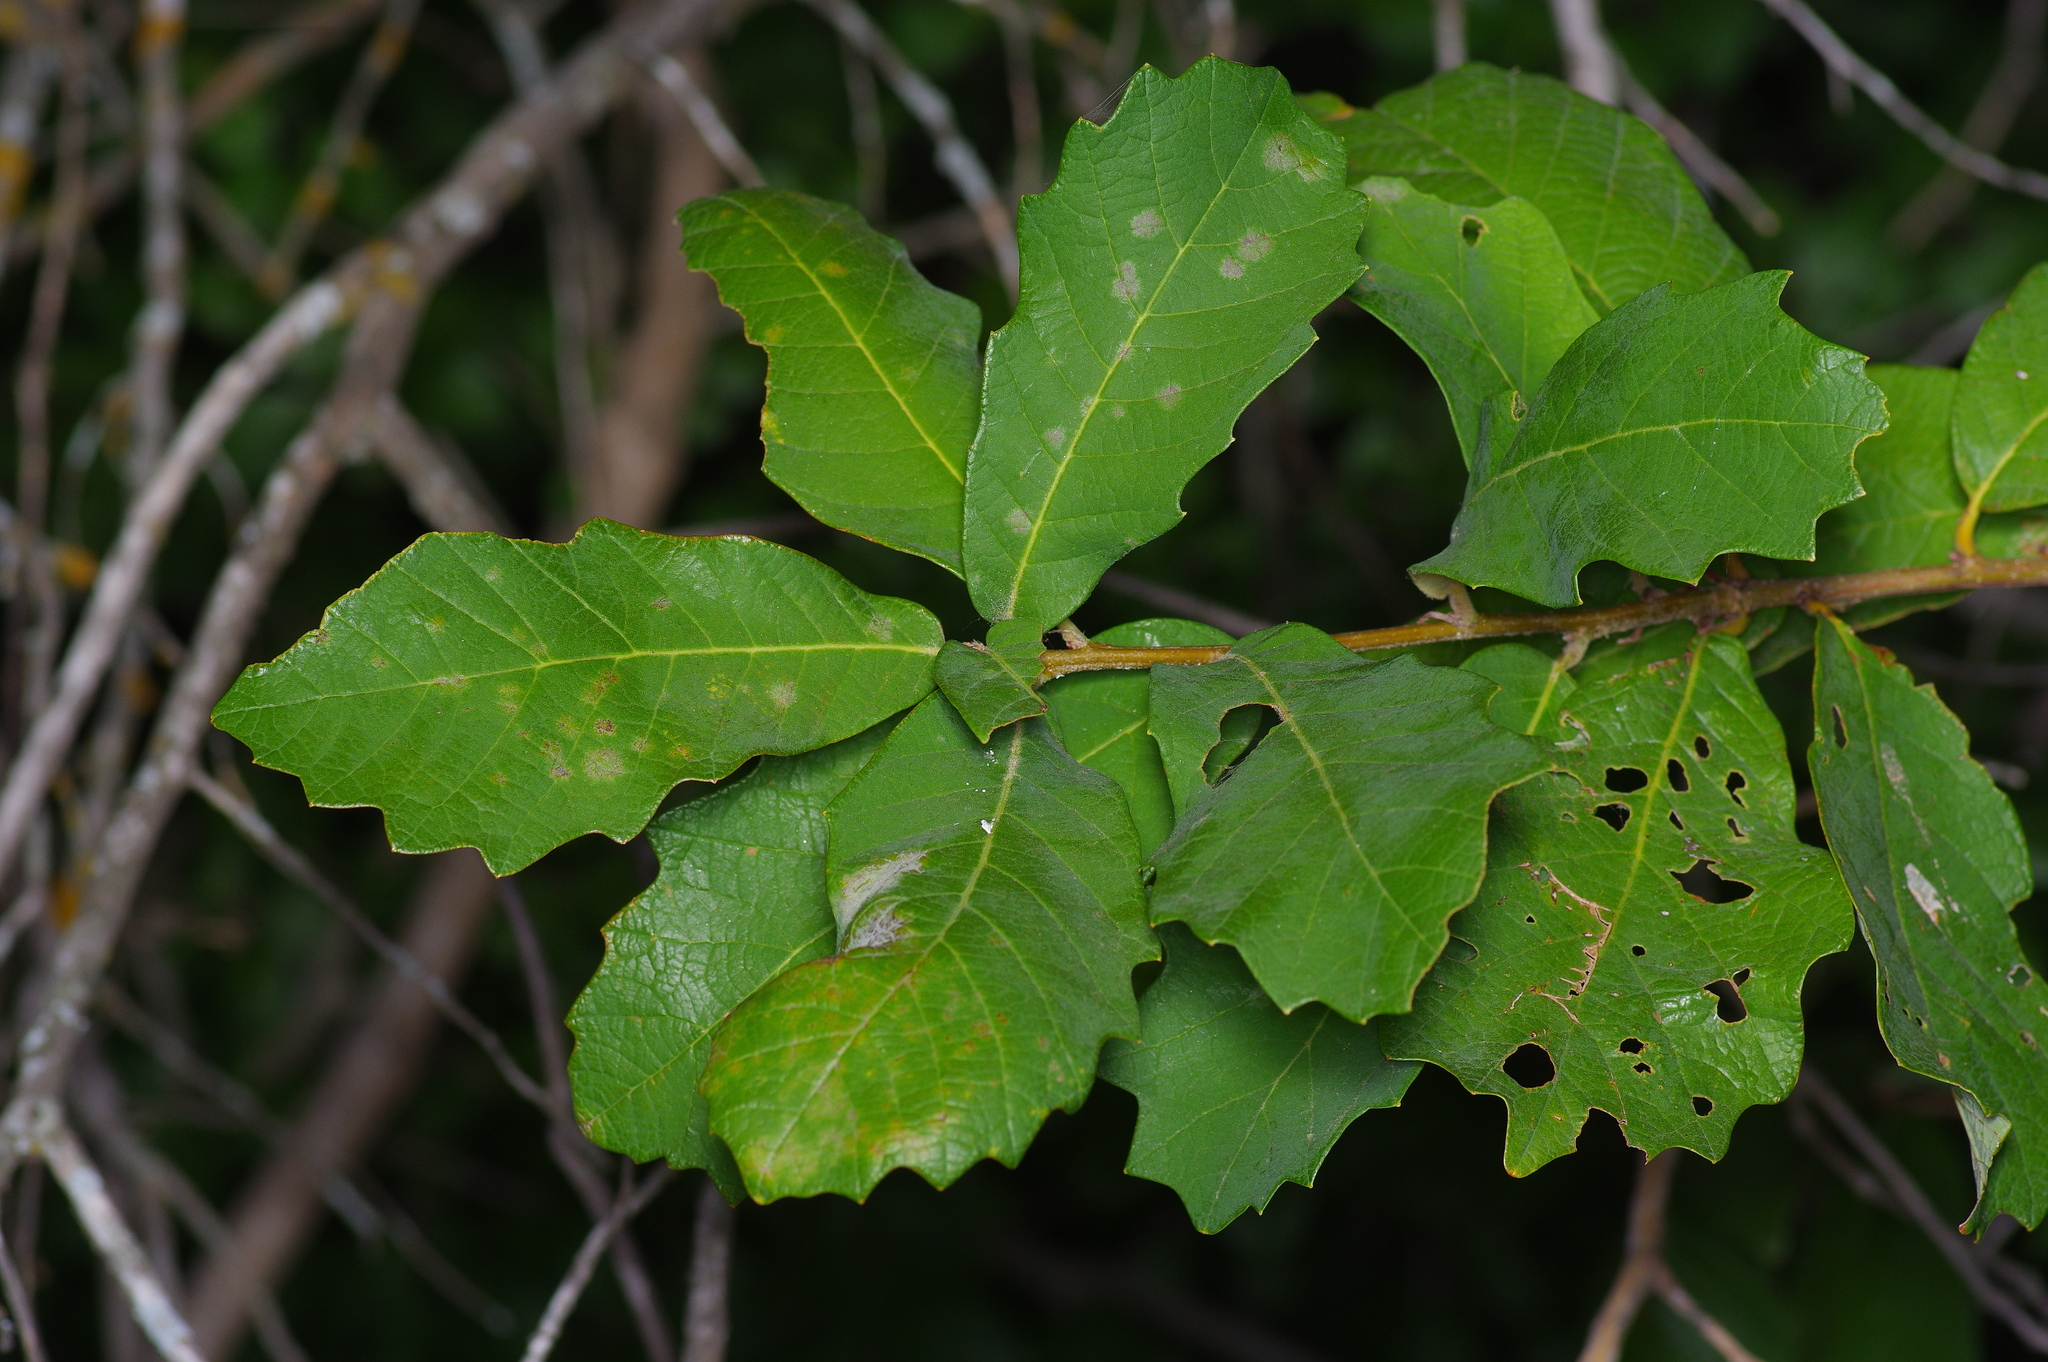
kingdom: Plantae
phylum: Tracheophyta
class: Magnoliopsida
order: Fagales
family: Fagaceae
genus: Quercus
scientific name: Quercus muehlenbergii
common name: Chinkapin oak
